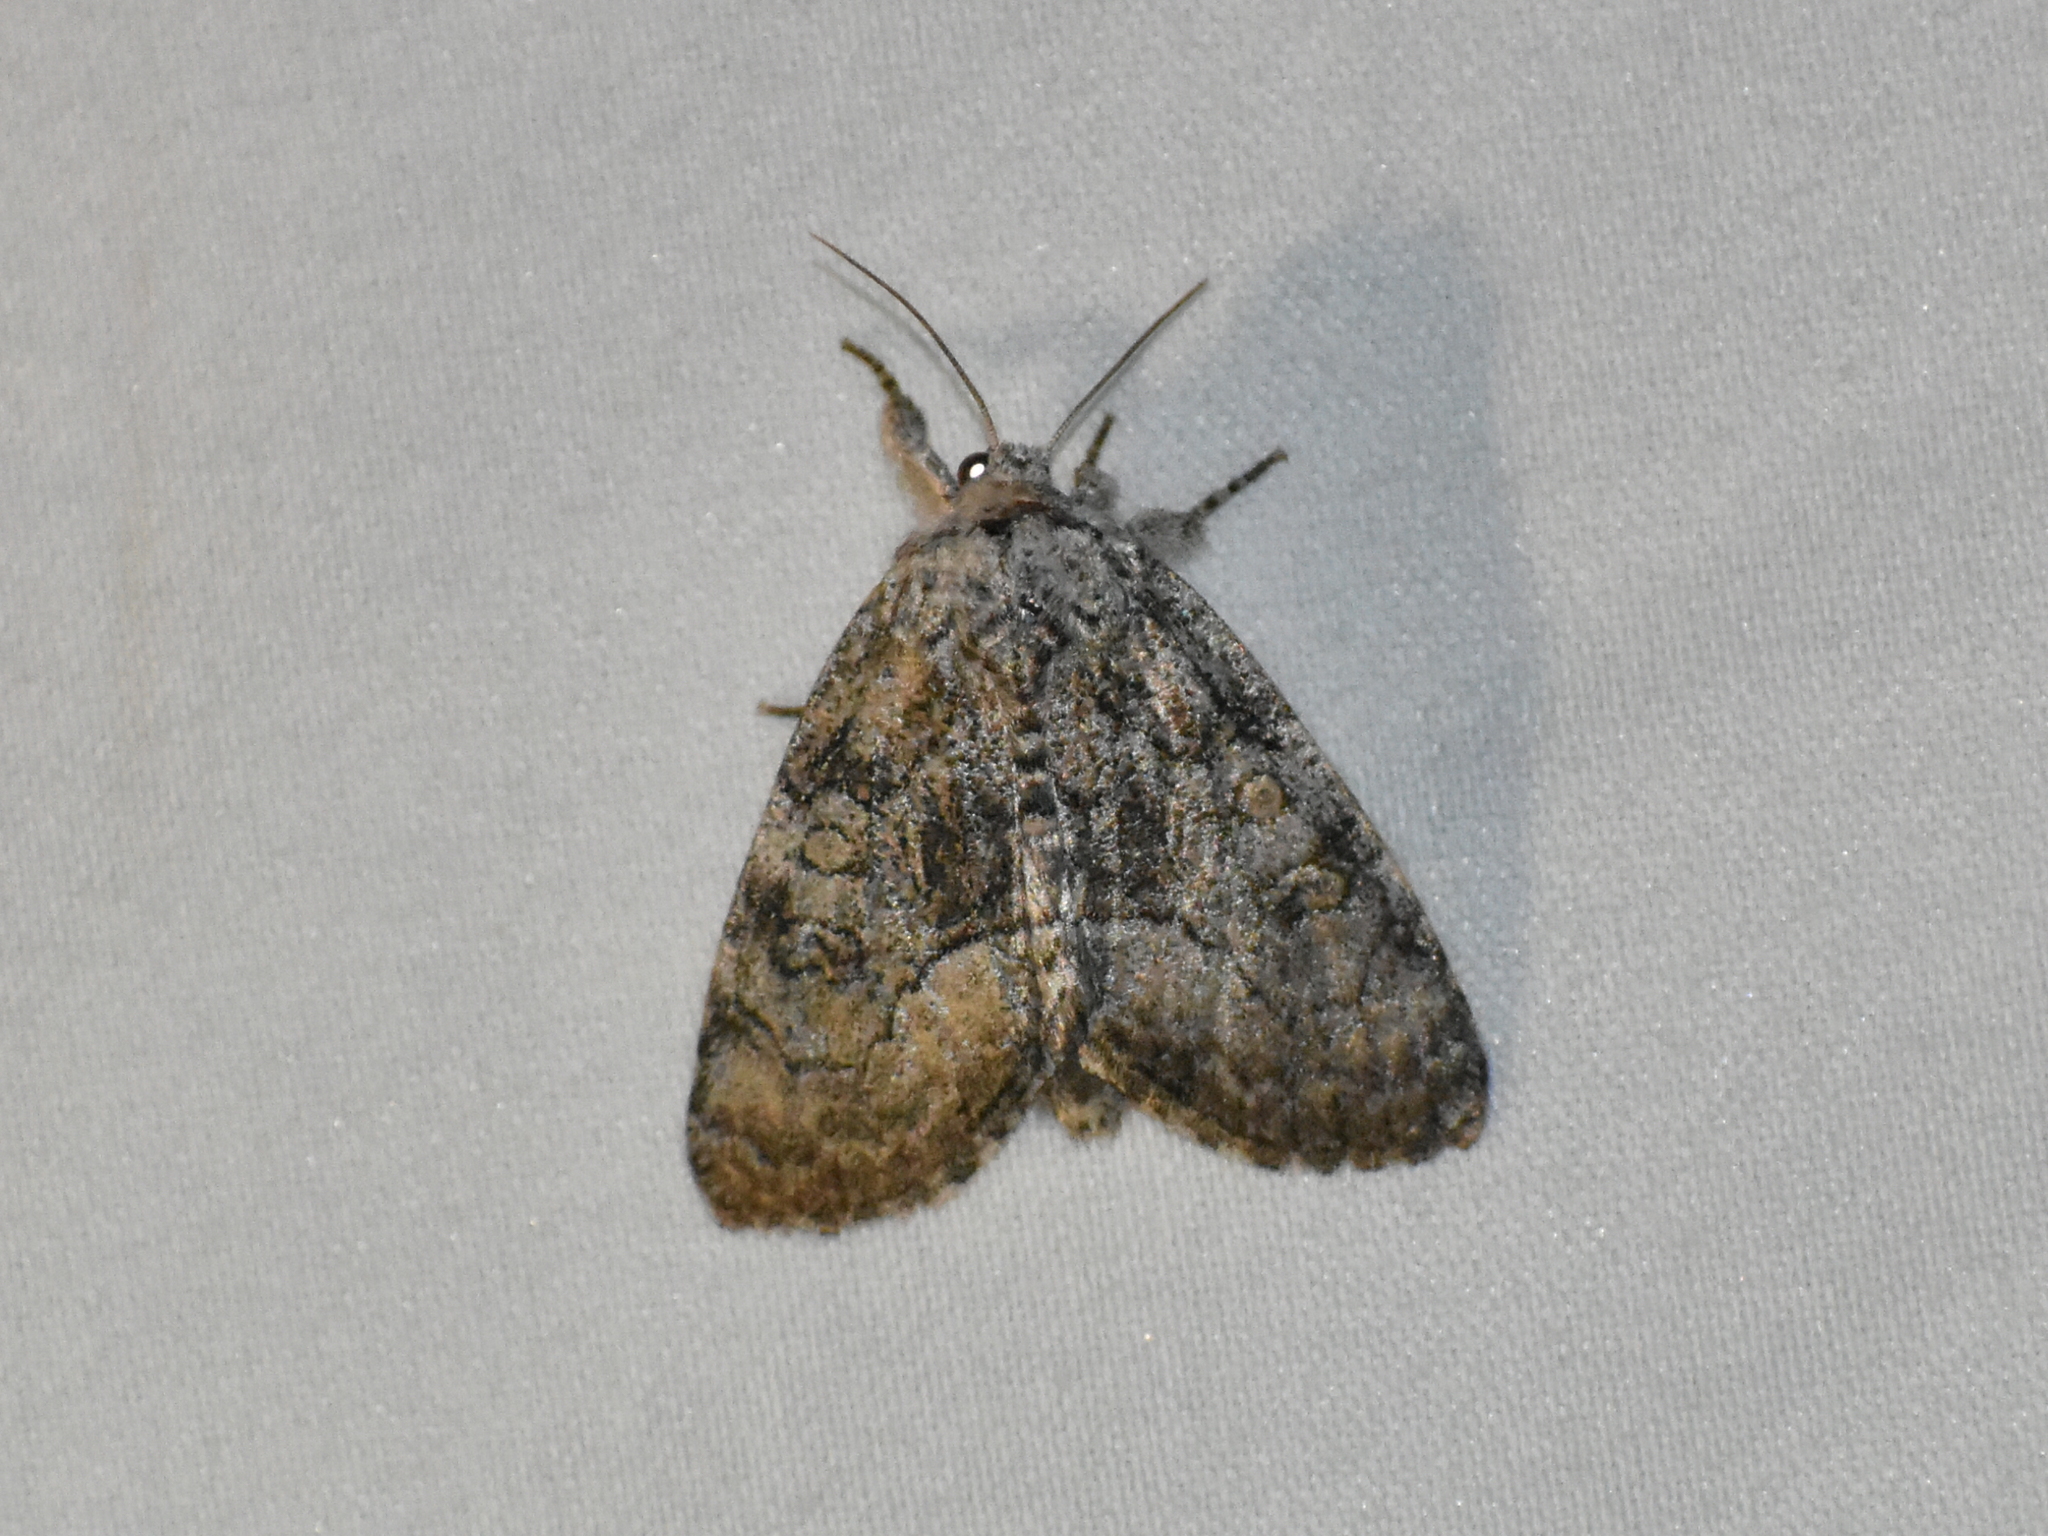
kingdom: Animalia
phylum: Arthropoda
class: Insecta
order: Lepidoptera
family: Noctuidae
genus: Raphia
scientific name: Raphia frater
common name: Brother
